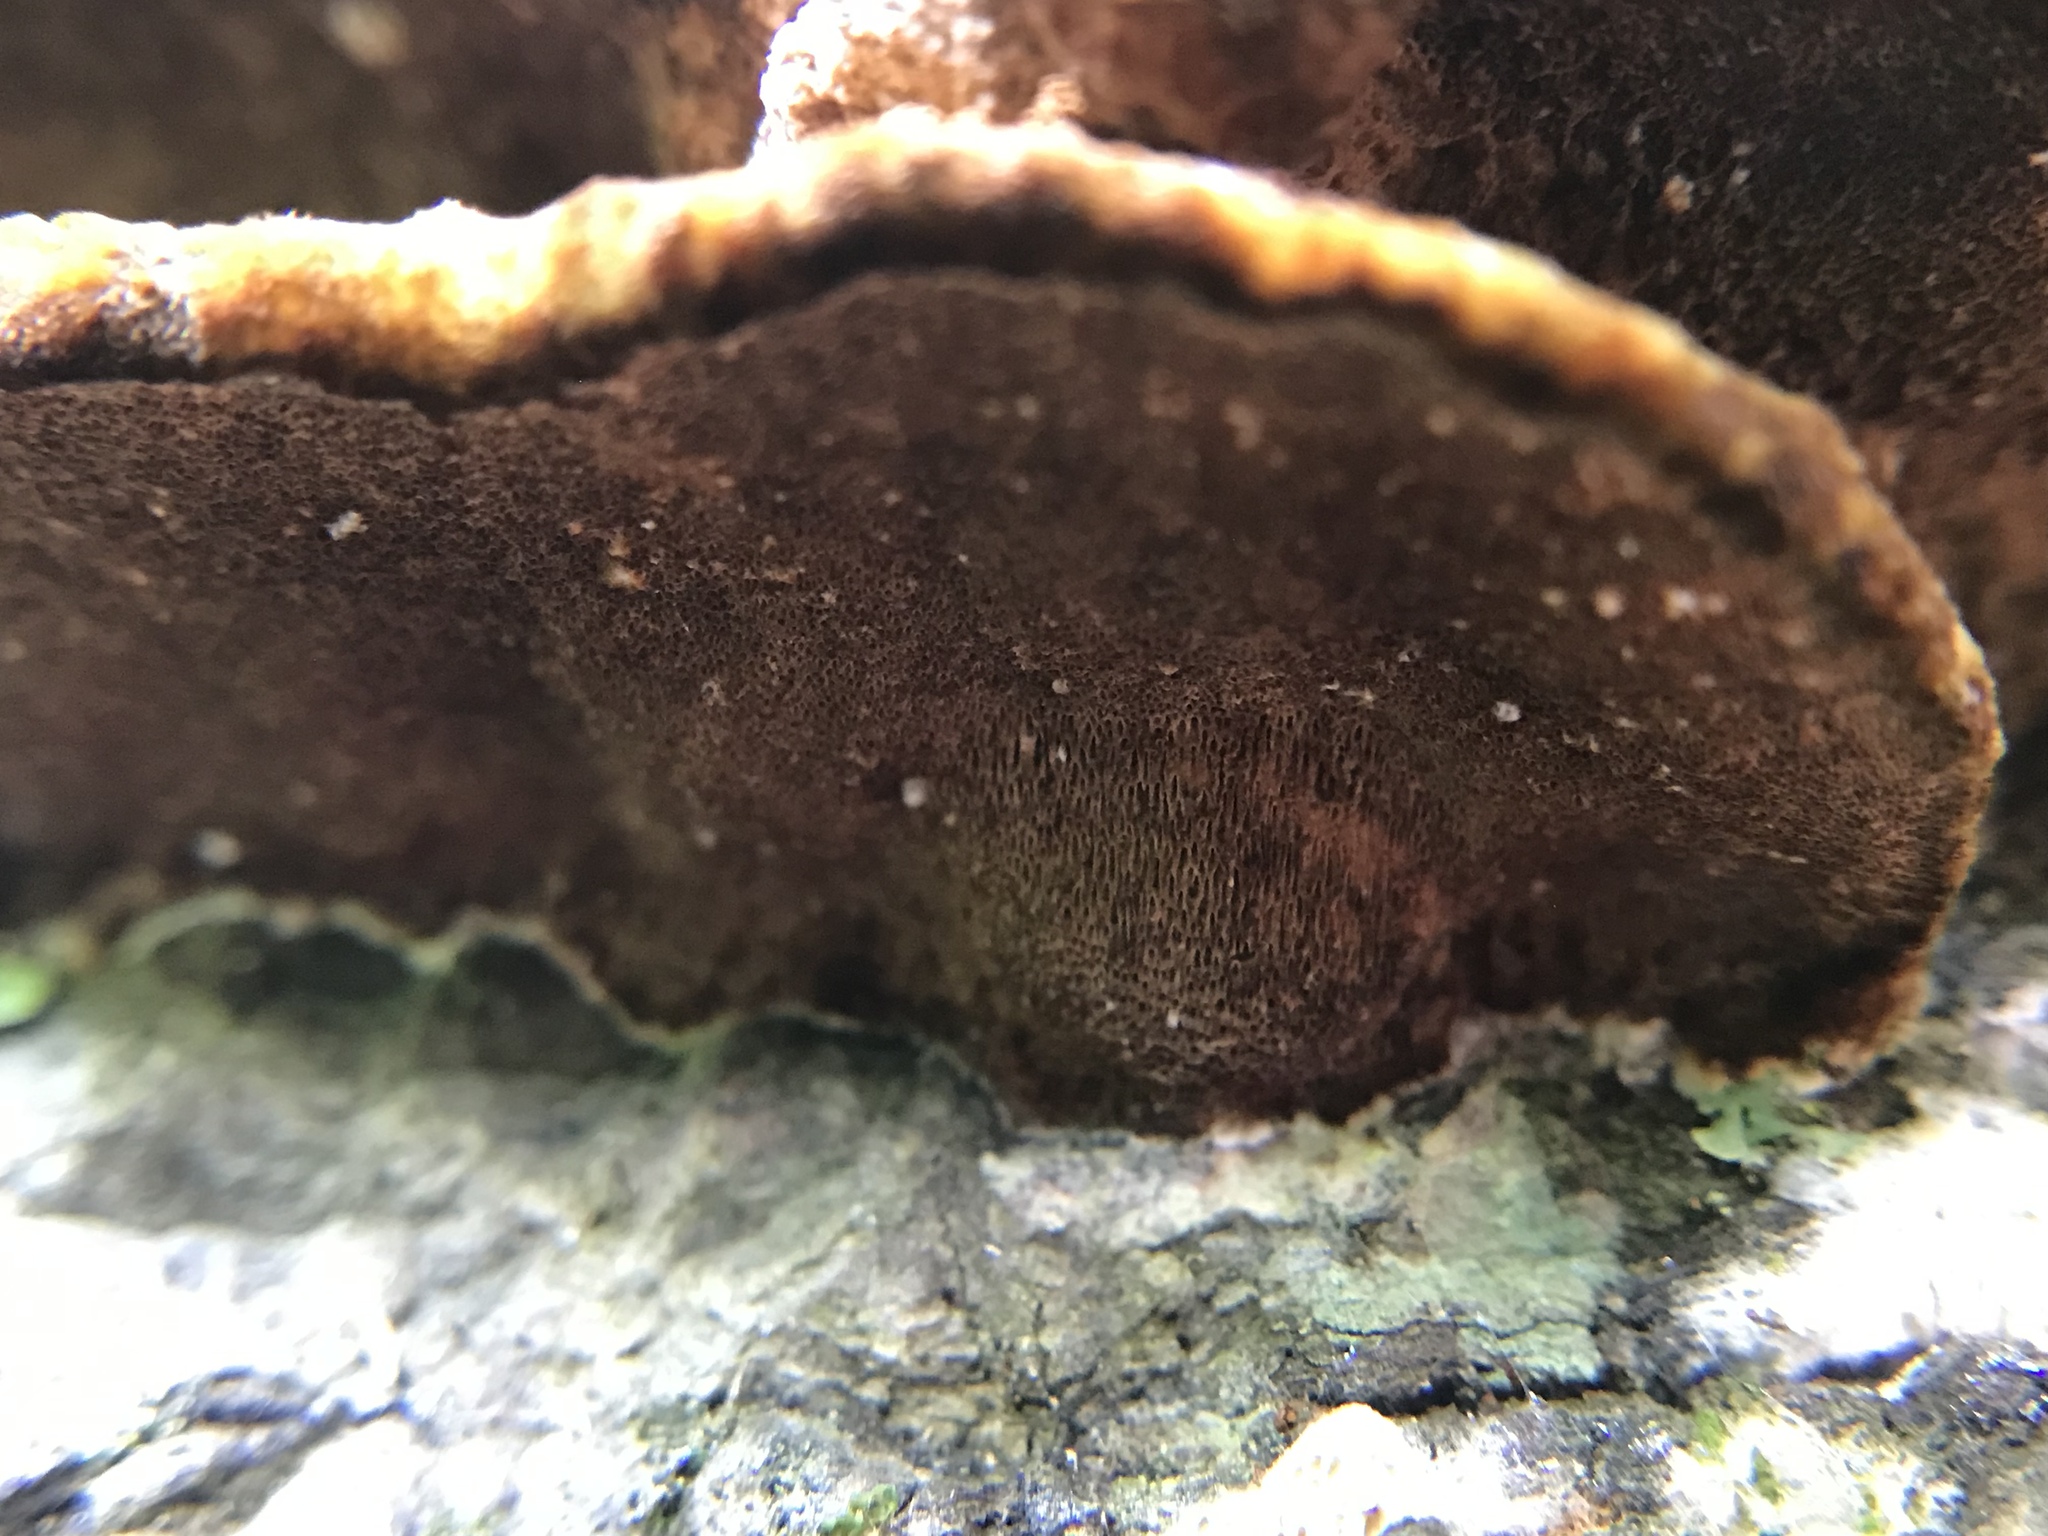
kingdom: Fungi
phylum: Basidiomycota
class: Agaricomycetes
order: Hymenochaetales
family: Hymenochaetaceae
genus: Phellinus
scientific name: Phellinus gilvus
